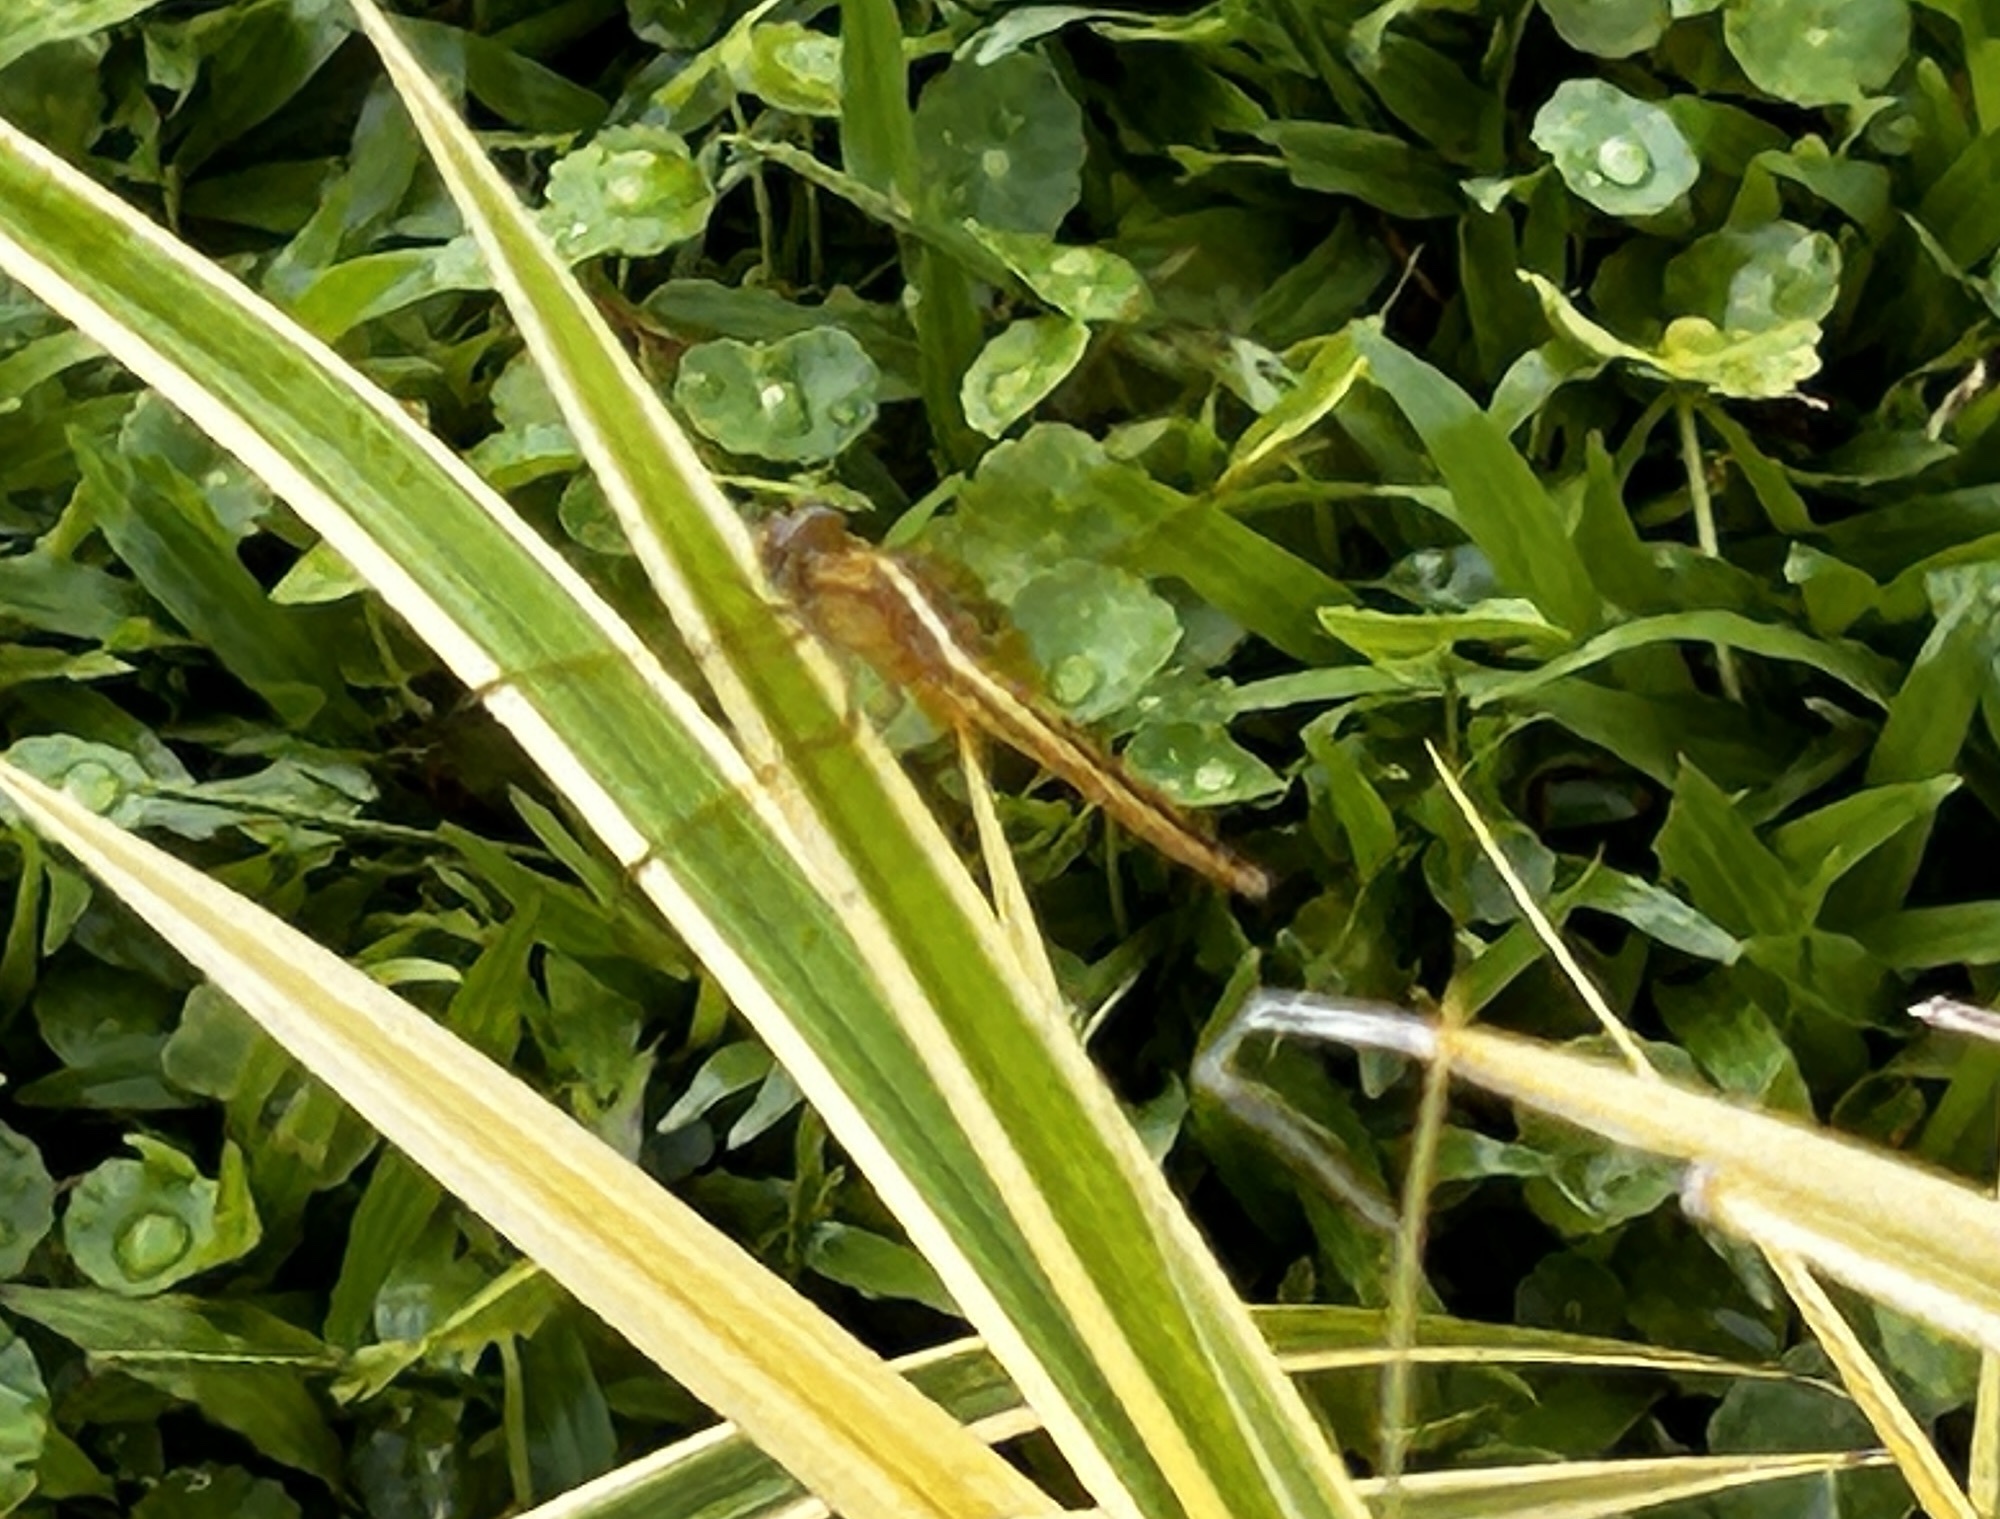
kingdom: Animalia
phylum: Arthropoda
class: Insecta
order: Odonata
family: Libellulidae
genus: Brachythemis
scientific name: Brachythemis contaminata
